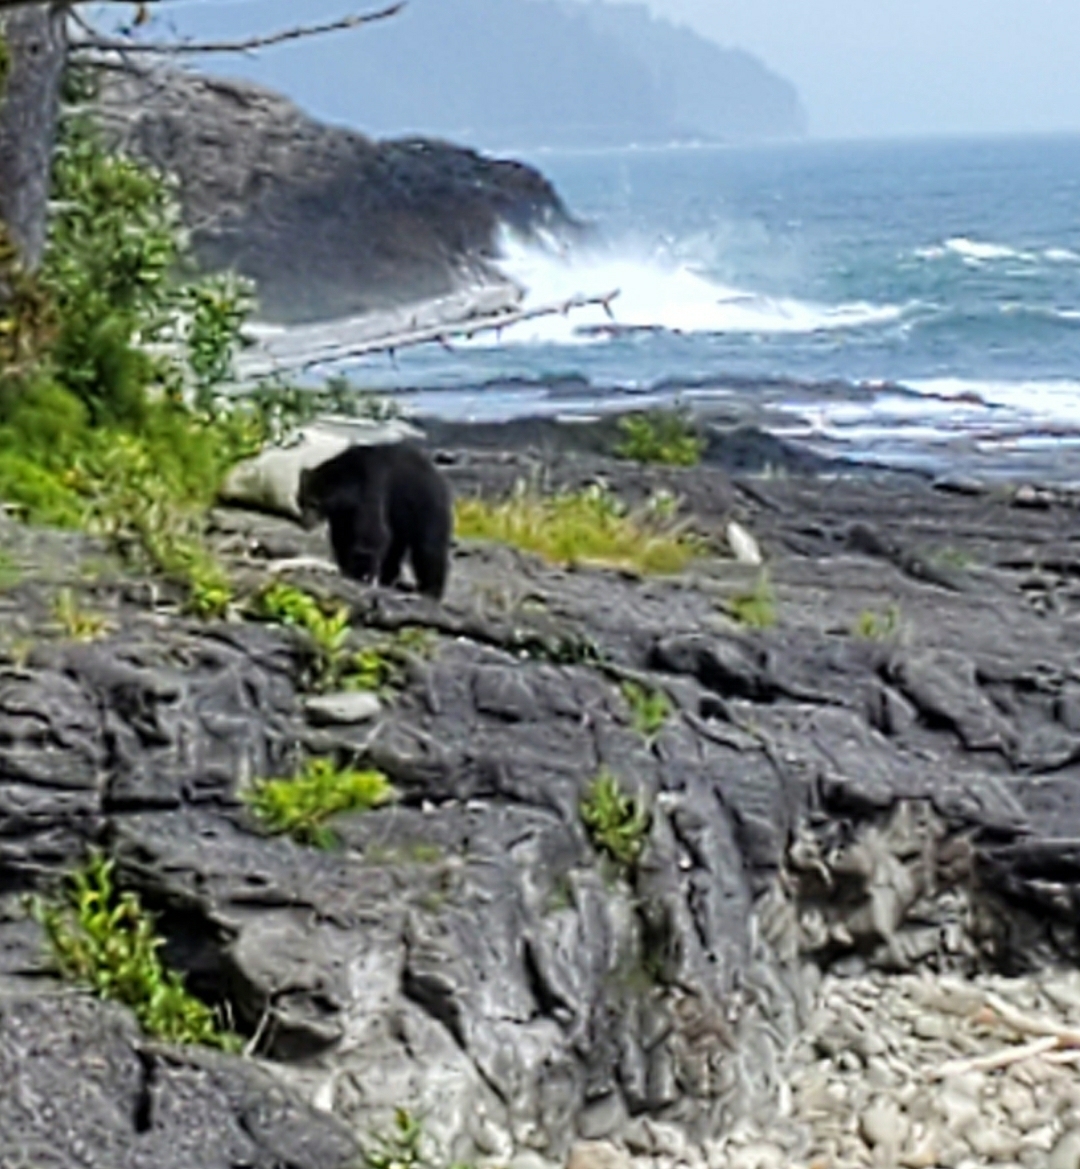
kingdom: Animalia
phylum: Chordata
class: Mammalia
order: Carnivora
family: Ursidae
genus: Ursus
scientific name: Ursus americanus
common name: American black bear
